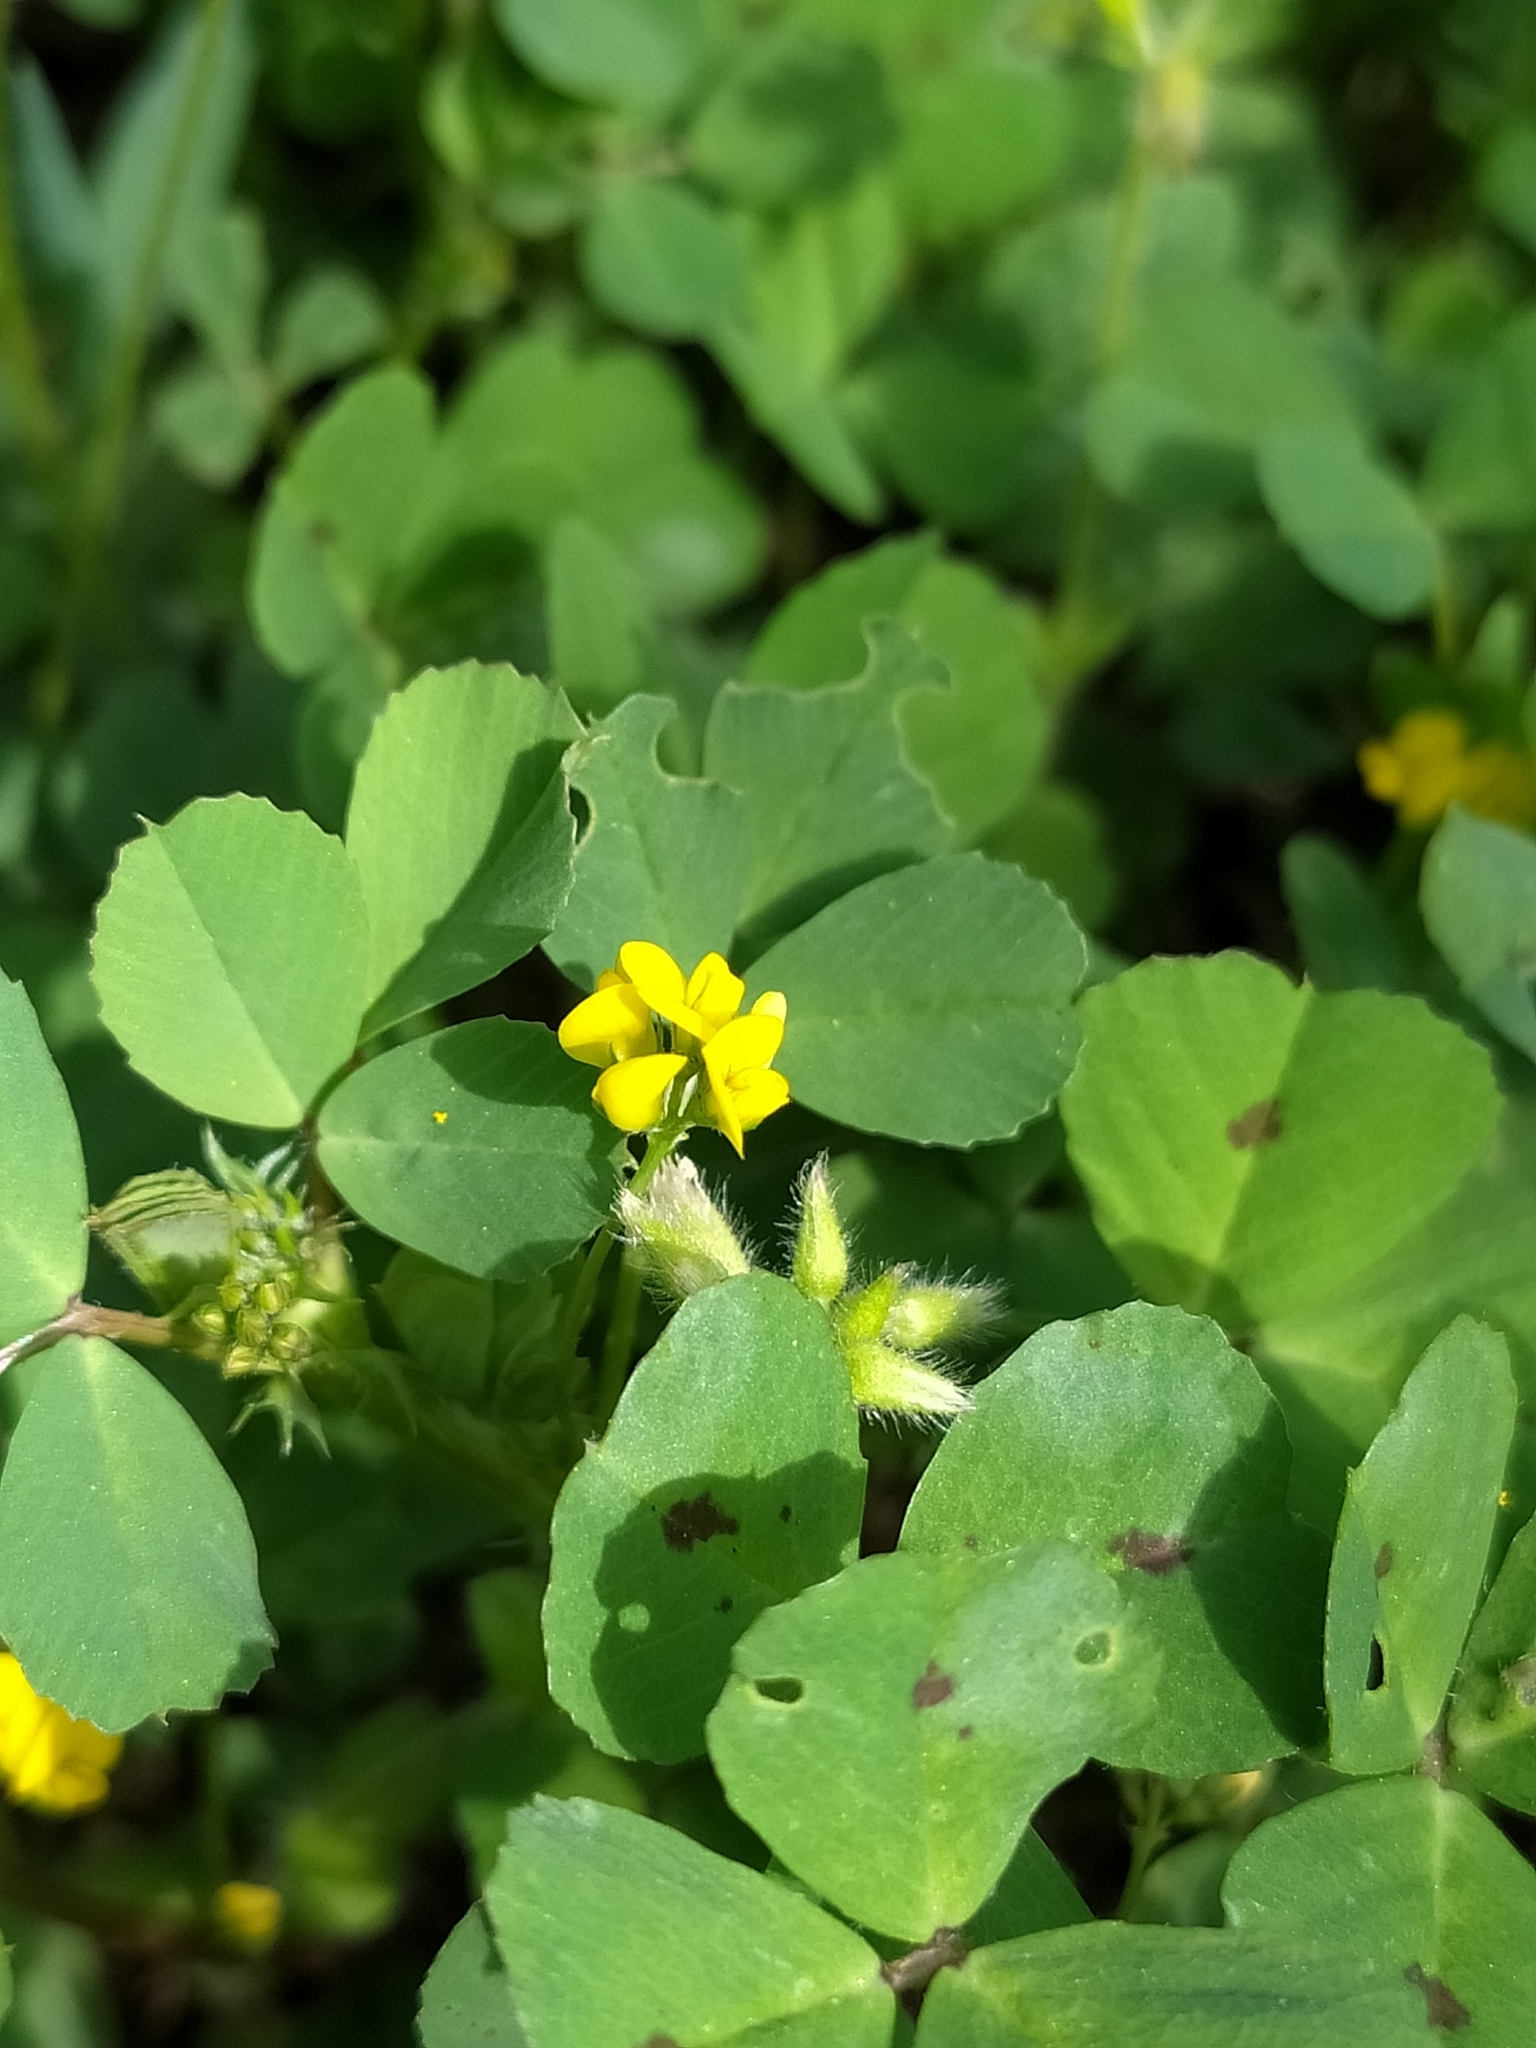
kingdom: Plantae
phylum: Tracheophyta
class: Magnoliopsida
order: Fabales
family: Fabaceae
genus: Medicago
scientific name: Medicago arabica
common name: Spotted medick
